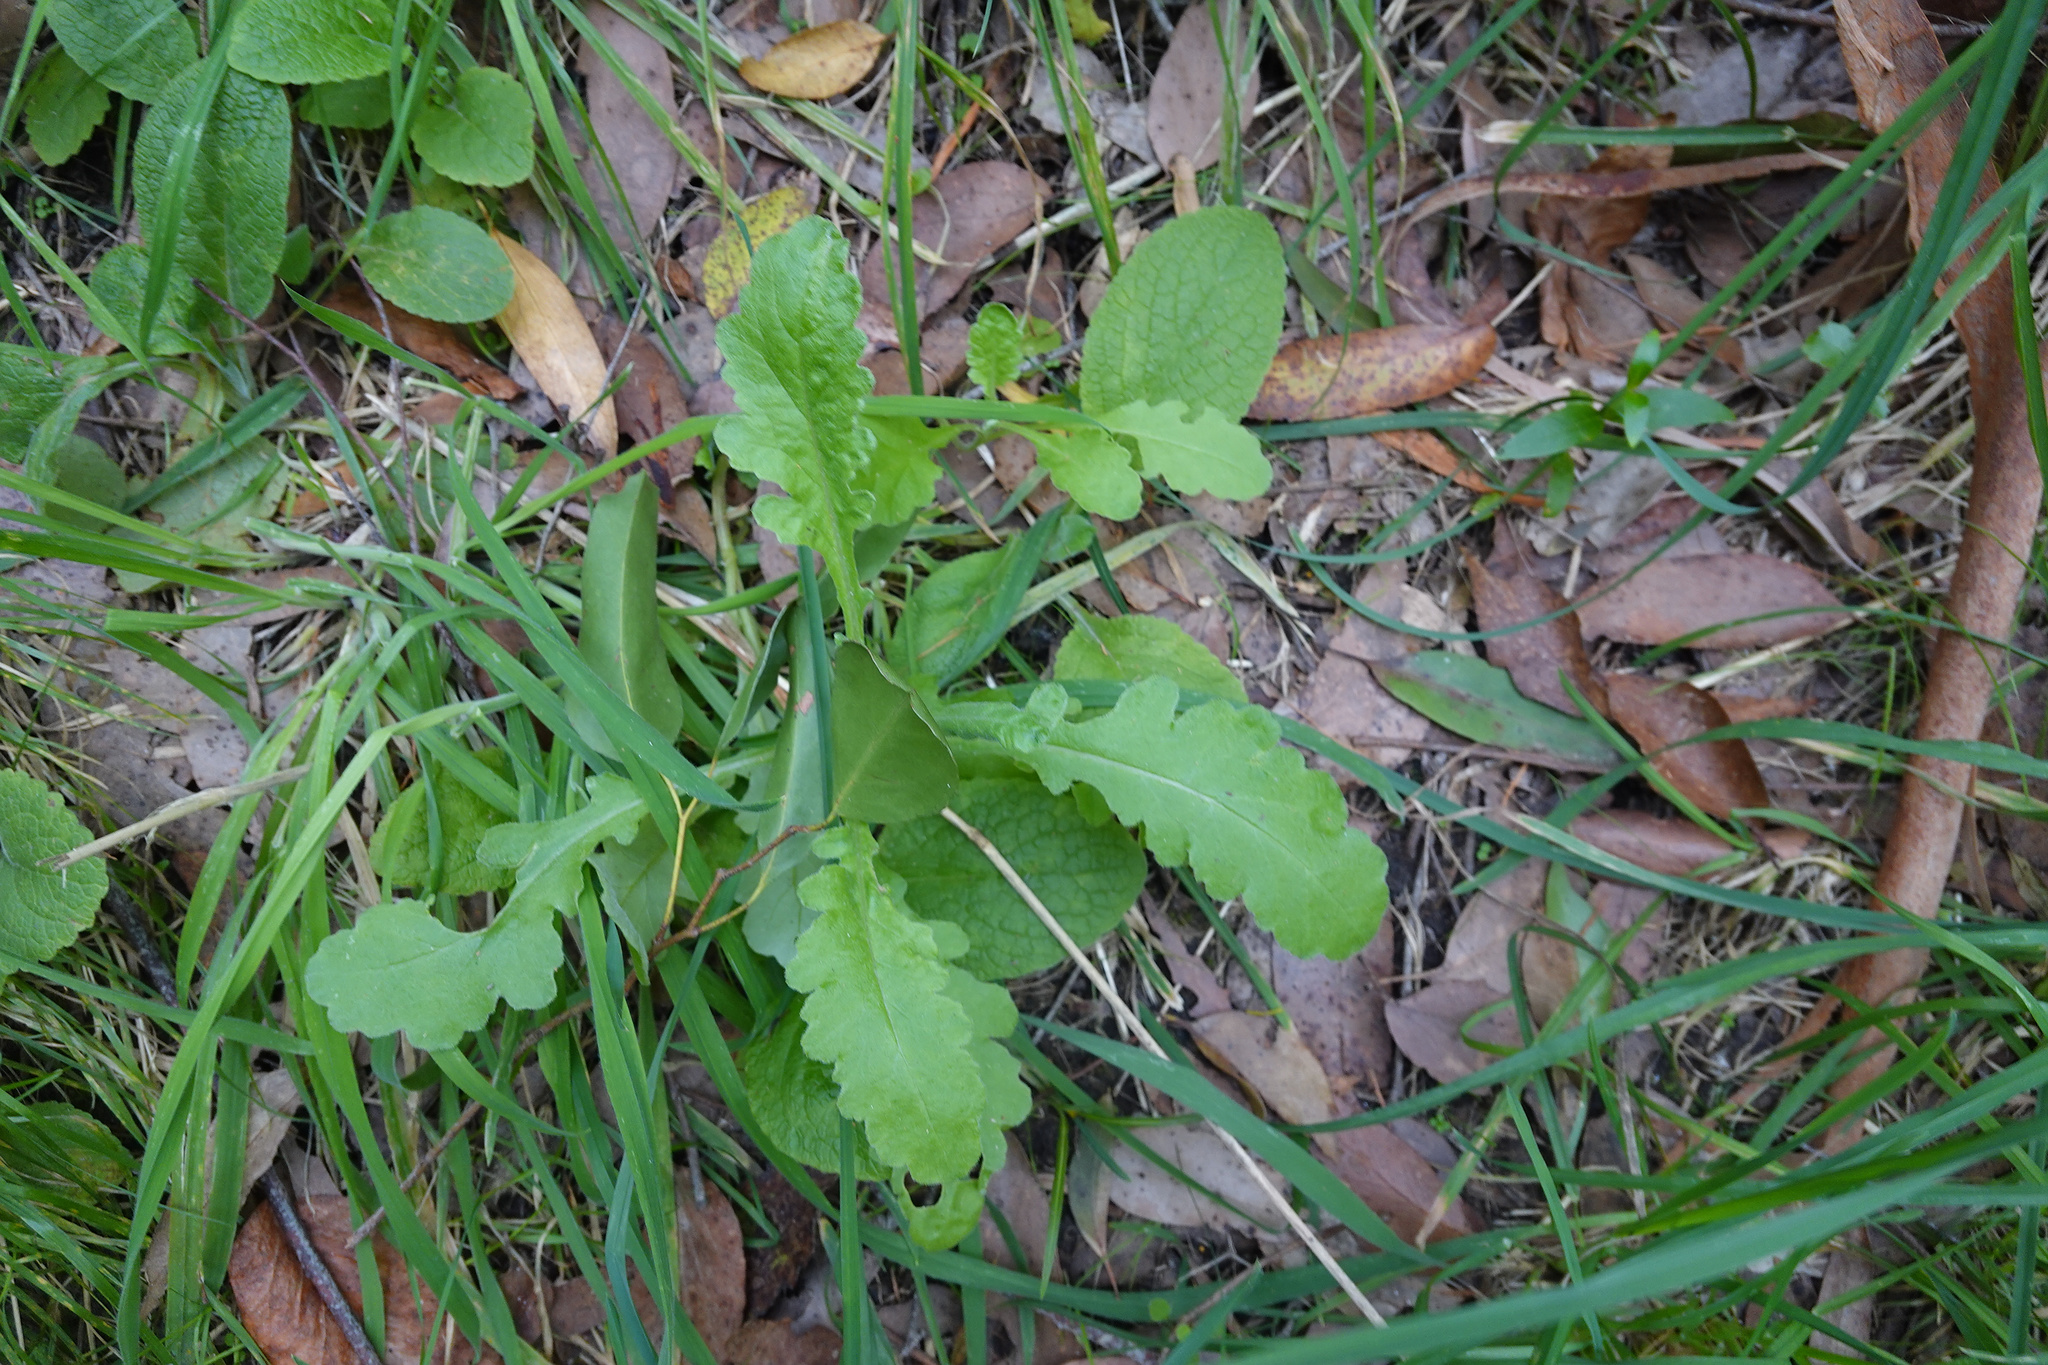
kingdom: Plantae
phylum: Tracheophyta
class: Magnoliopsida
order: Asterales
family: Asteraceae
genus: Senecio
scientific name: Senecio glomeratus
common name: Cutleaf burnweed
